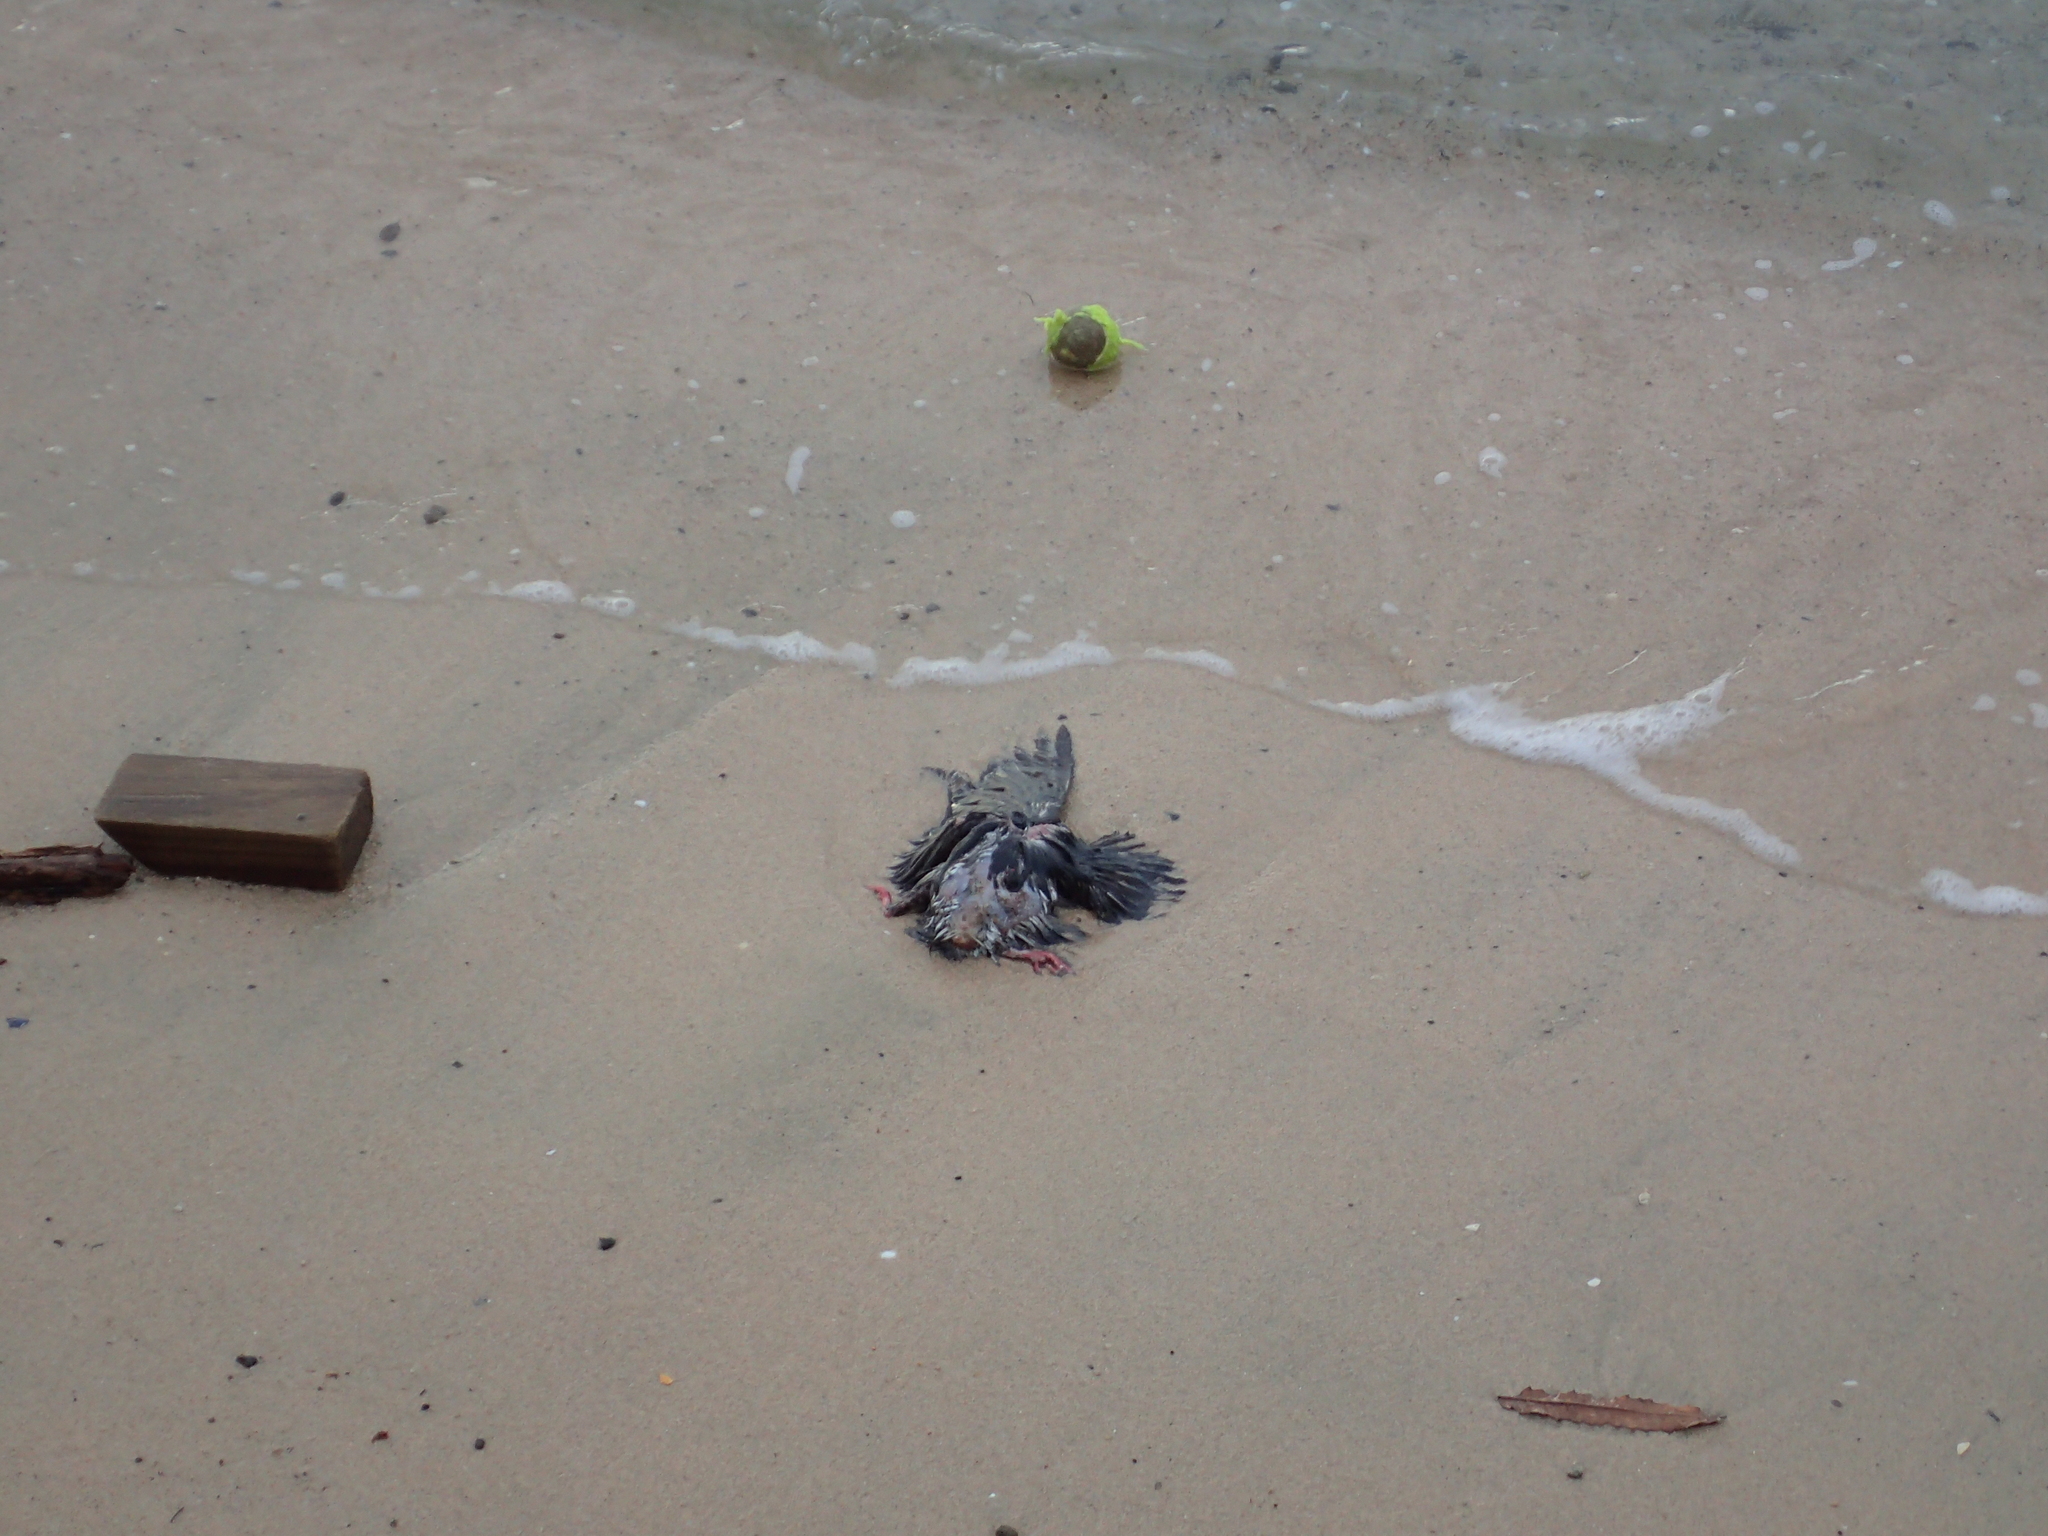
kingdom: Animalia
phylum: Chordata
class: Aves
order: Columbiformes
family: Columbidae
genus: Columba
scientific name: Columba livia
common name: Rock pigeon
